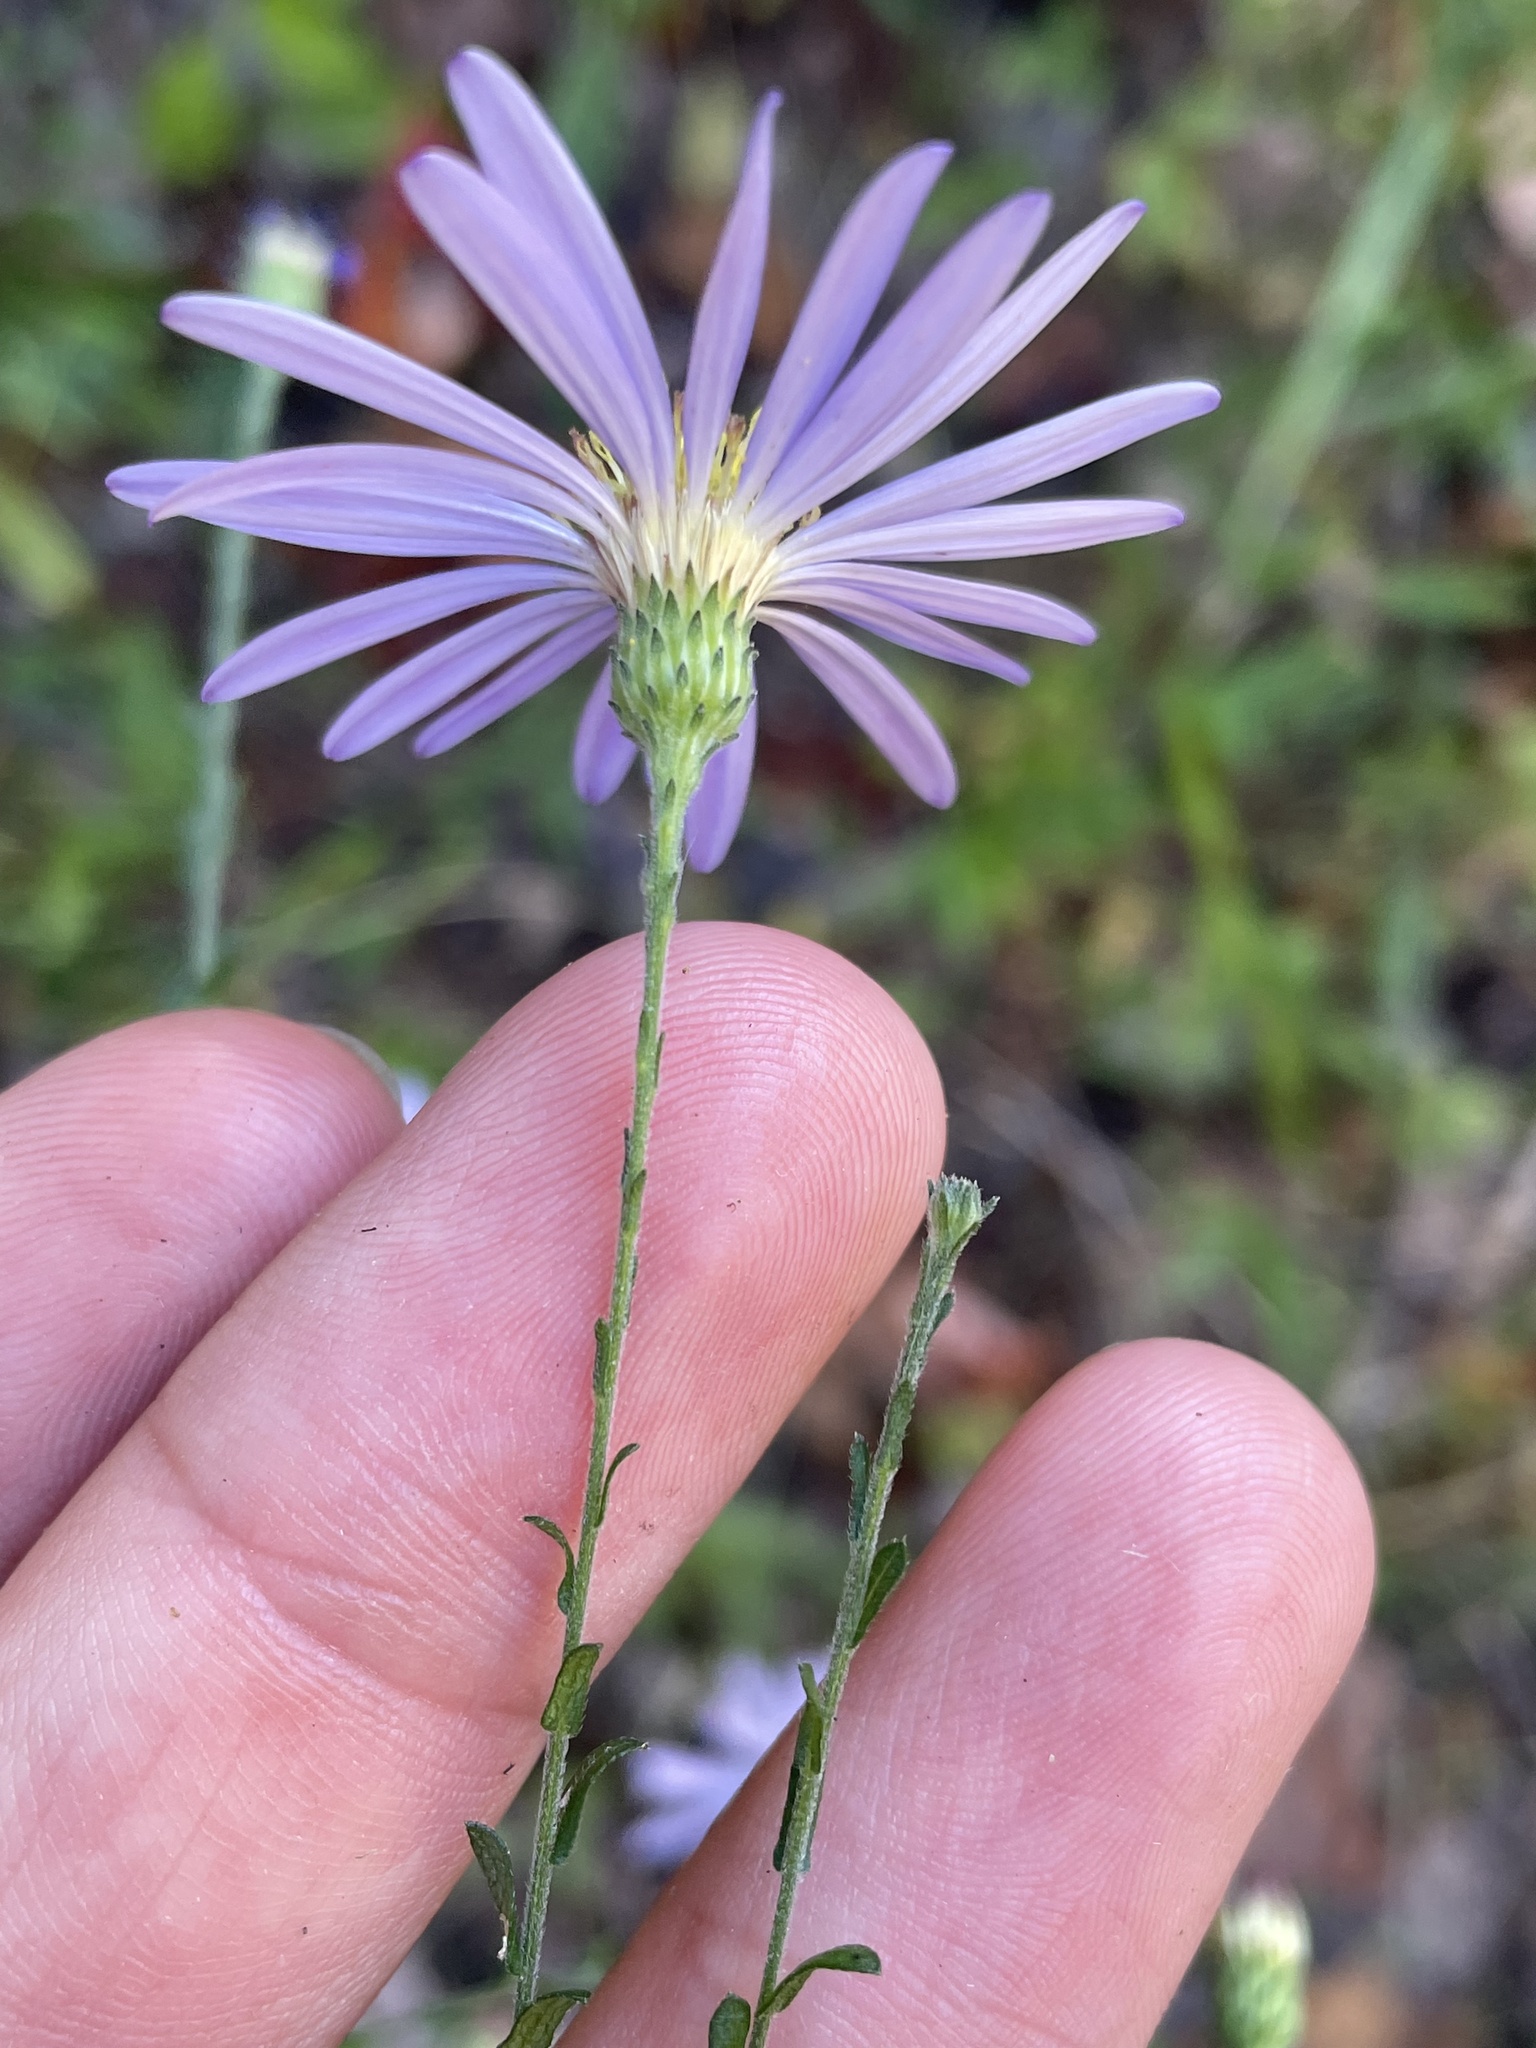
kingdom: Plantae
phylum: Tracheophyta
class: Magnoliopsida
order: Asterales
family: Asteraceae
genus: Symphyotrichum
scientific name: Symphyotrichum patens
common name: Late purple aster
